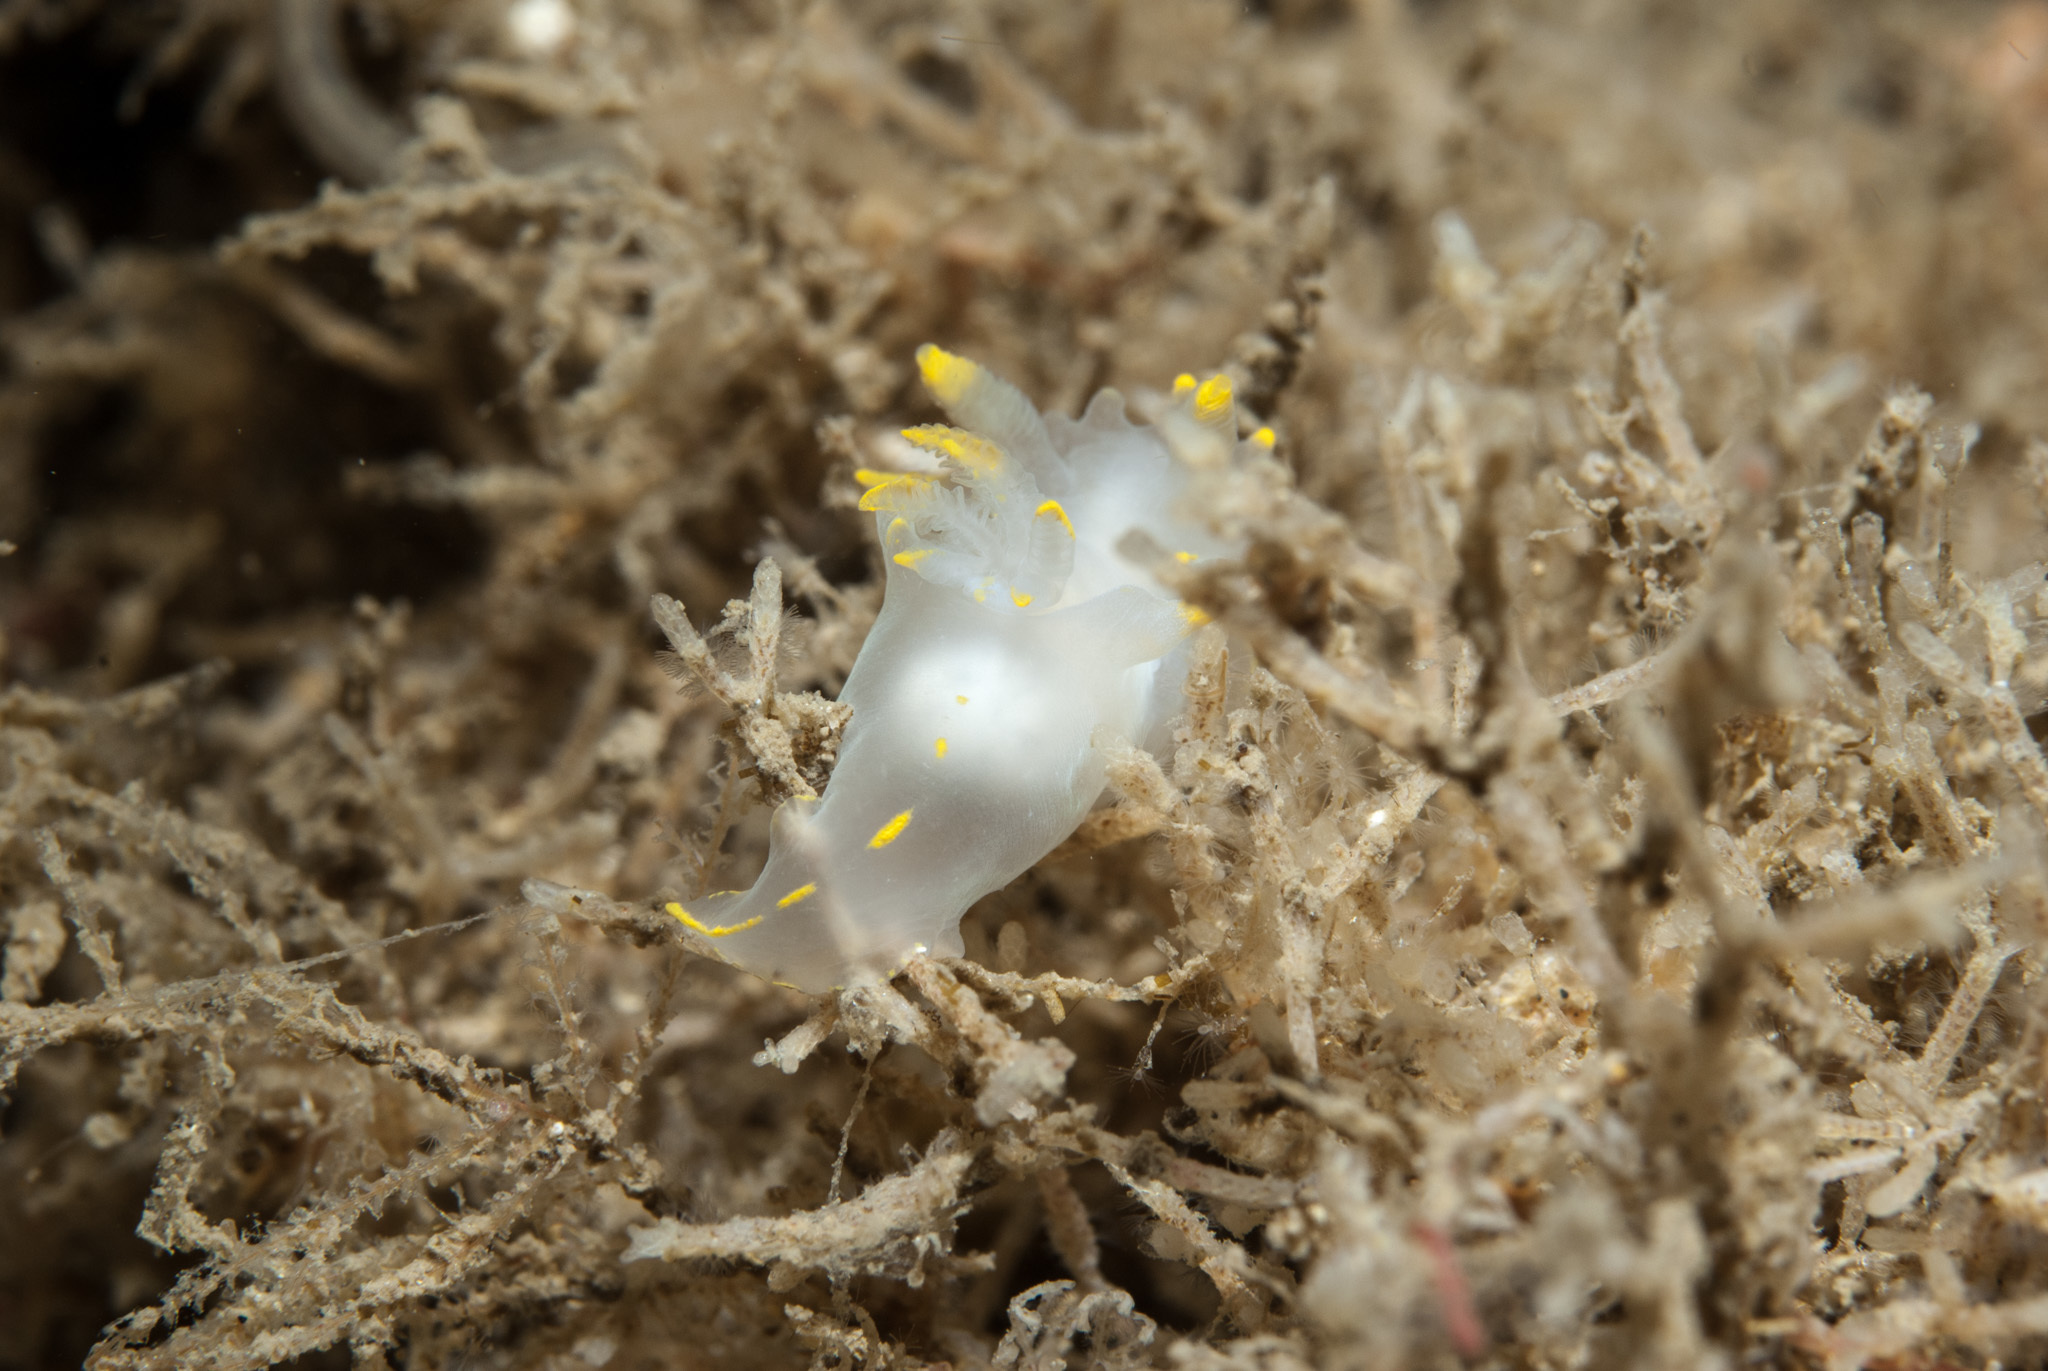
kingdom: Animalia
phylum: Mollusca
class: Gastropoda
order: Nudibranchia
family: Polyceridae
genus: Polycera
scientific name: Polycera faeroensis
